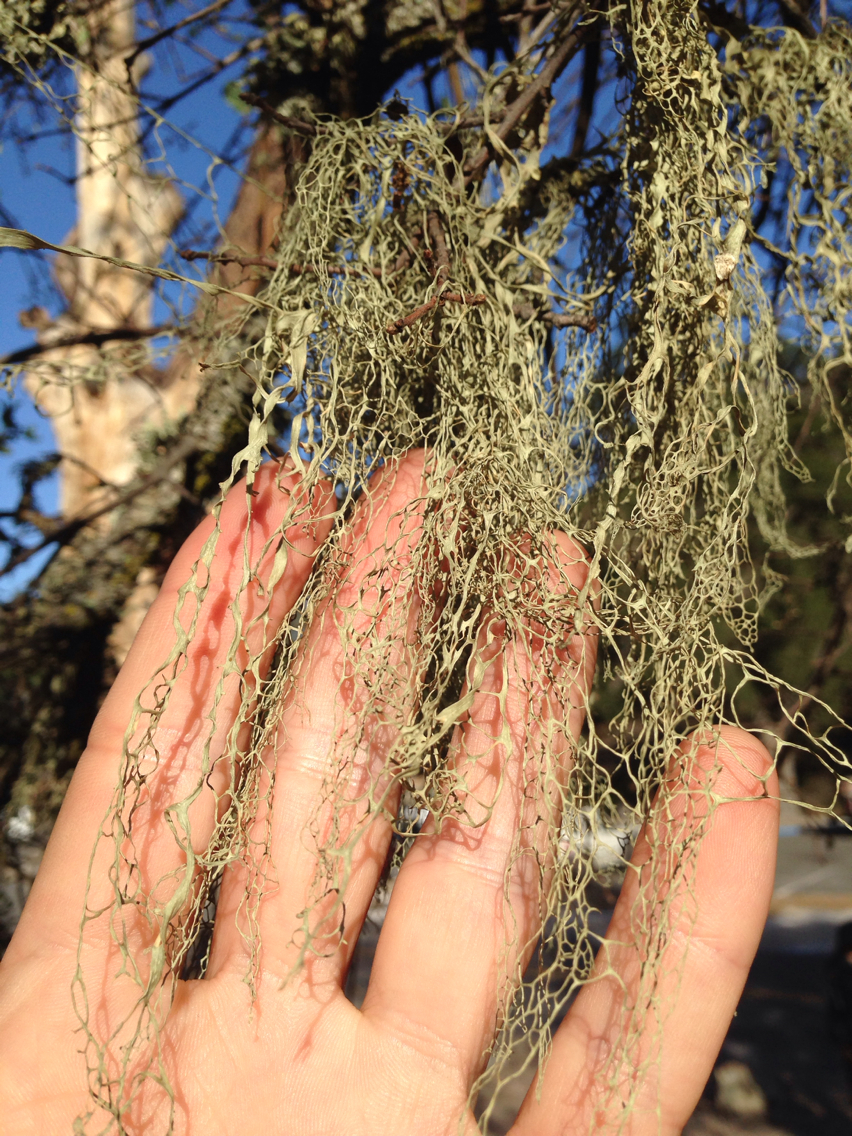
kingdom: Fungi
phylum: Ascomycota
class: Lecanoromycetes
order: Lecanorales
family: Ramalinaceae
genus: Ramalina
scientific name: Ramalina menziesii
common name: Lace lichen
